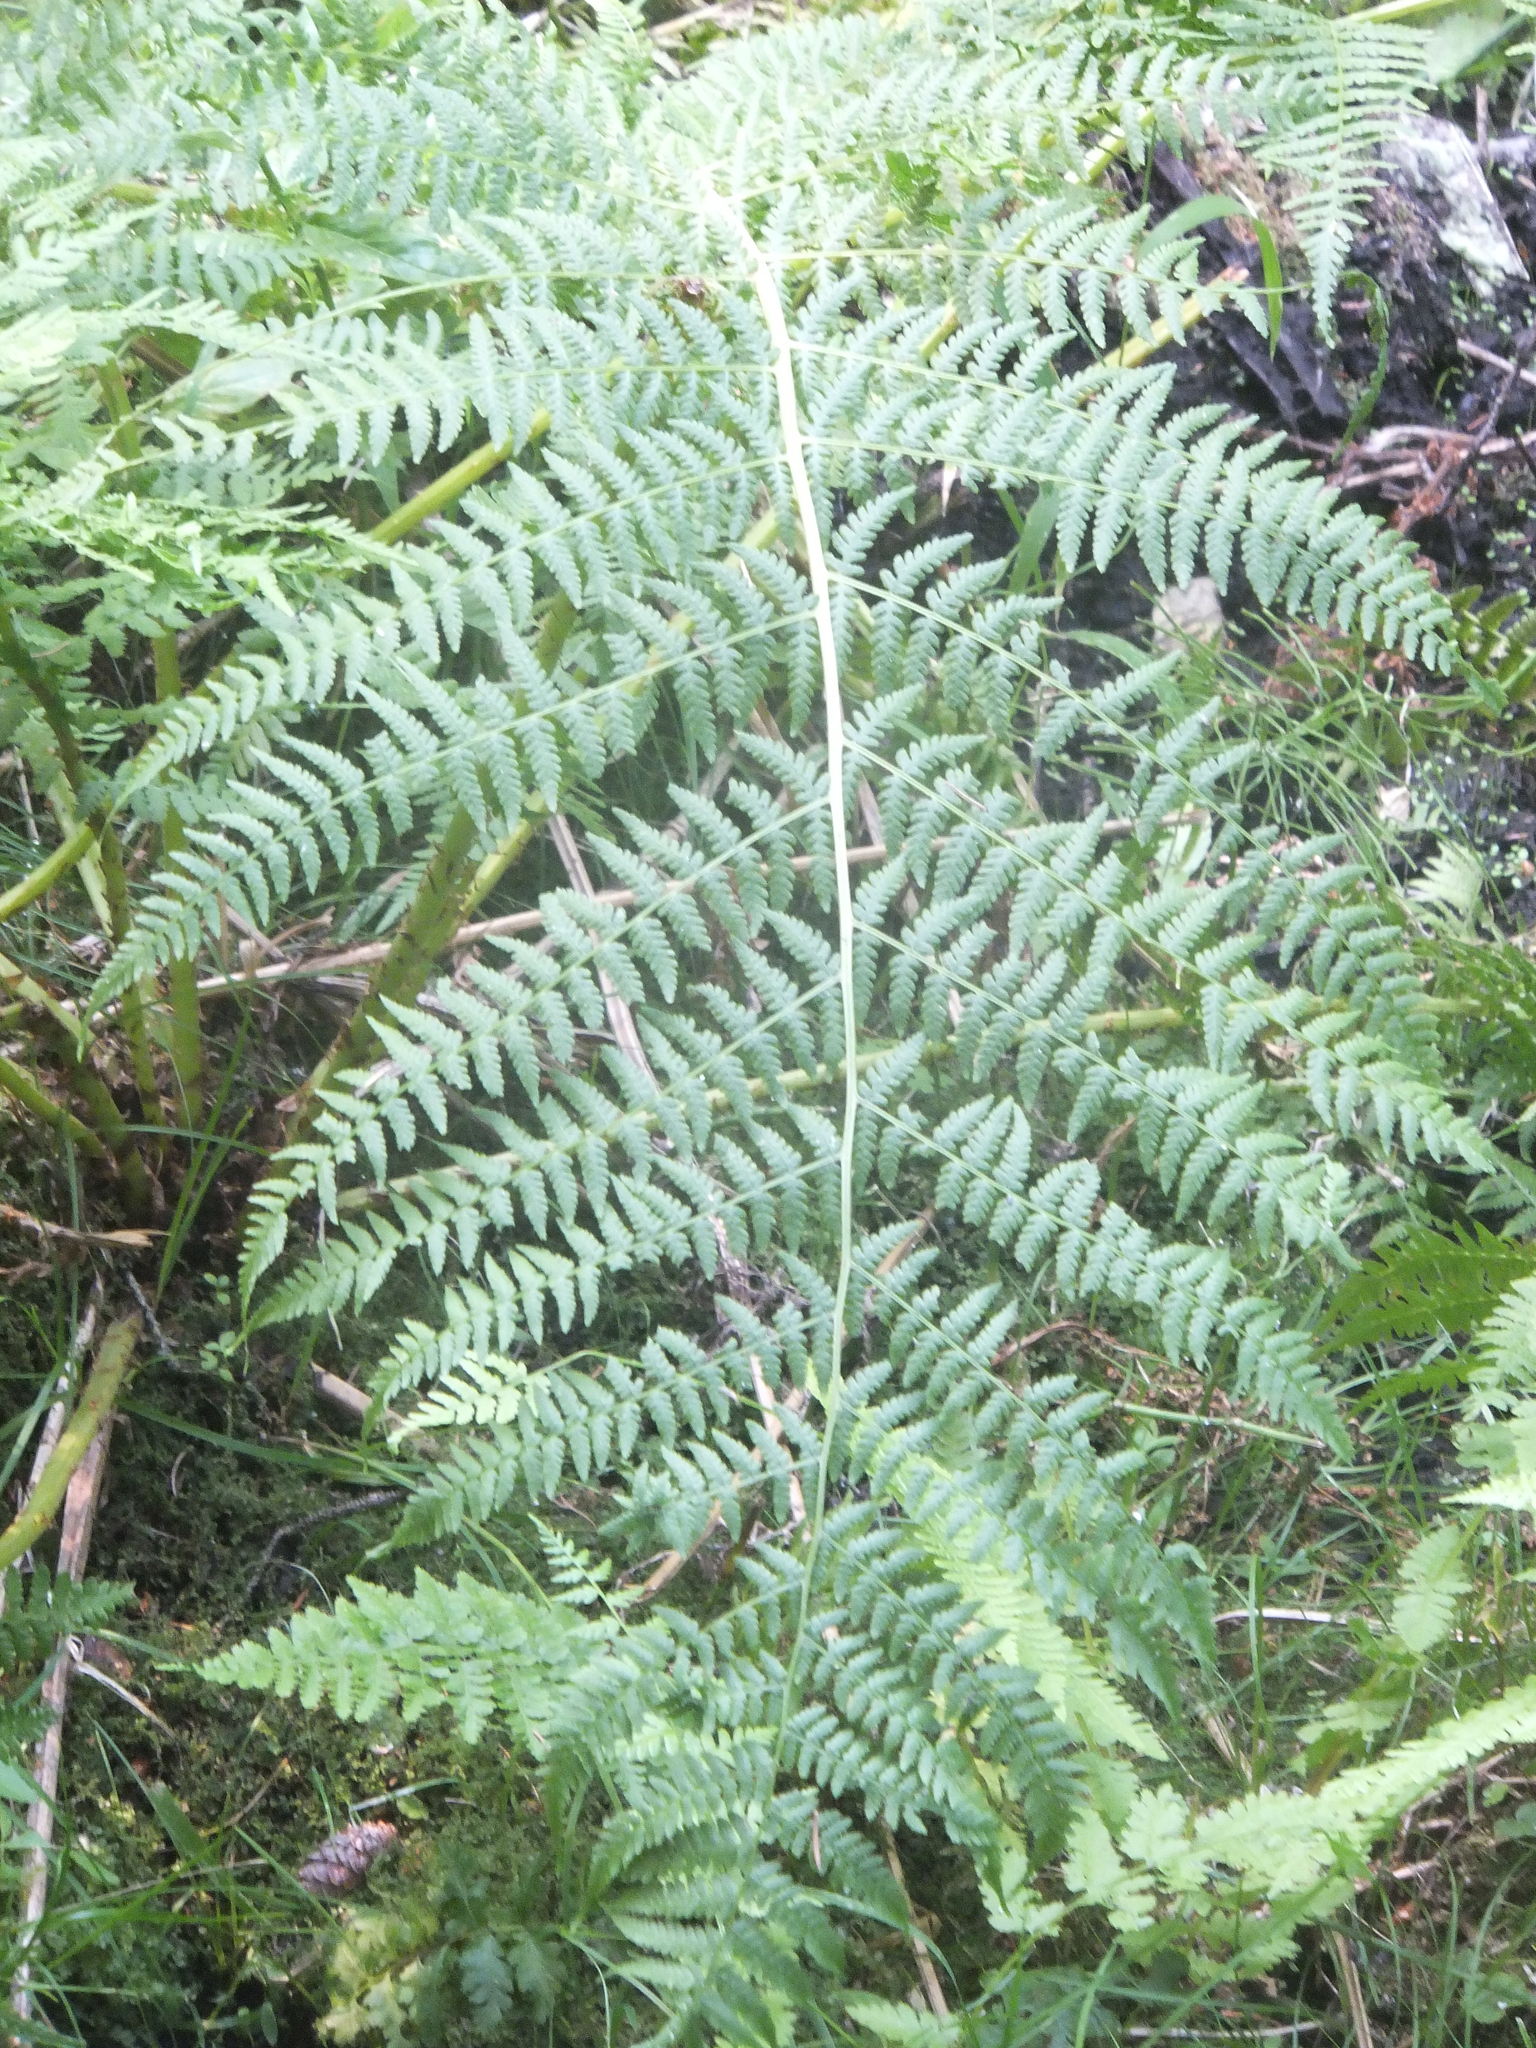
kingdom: Plantae
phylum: Tracheophyta
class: Polypodiopsida
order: Polypodiales
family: Athyriaceae
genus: Athyrium
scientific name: Athyrium filix-femina
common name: Lady fern
